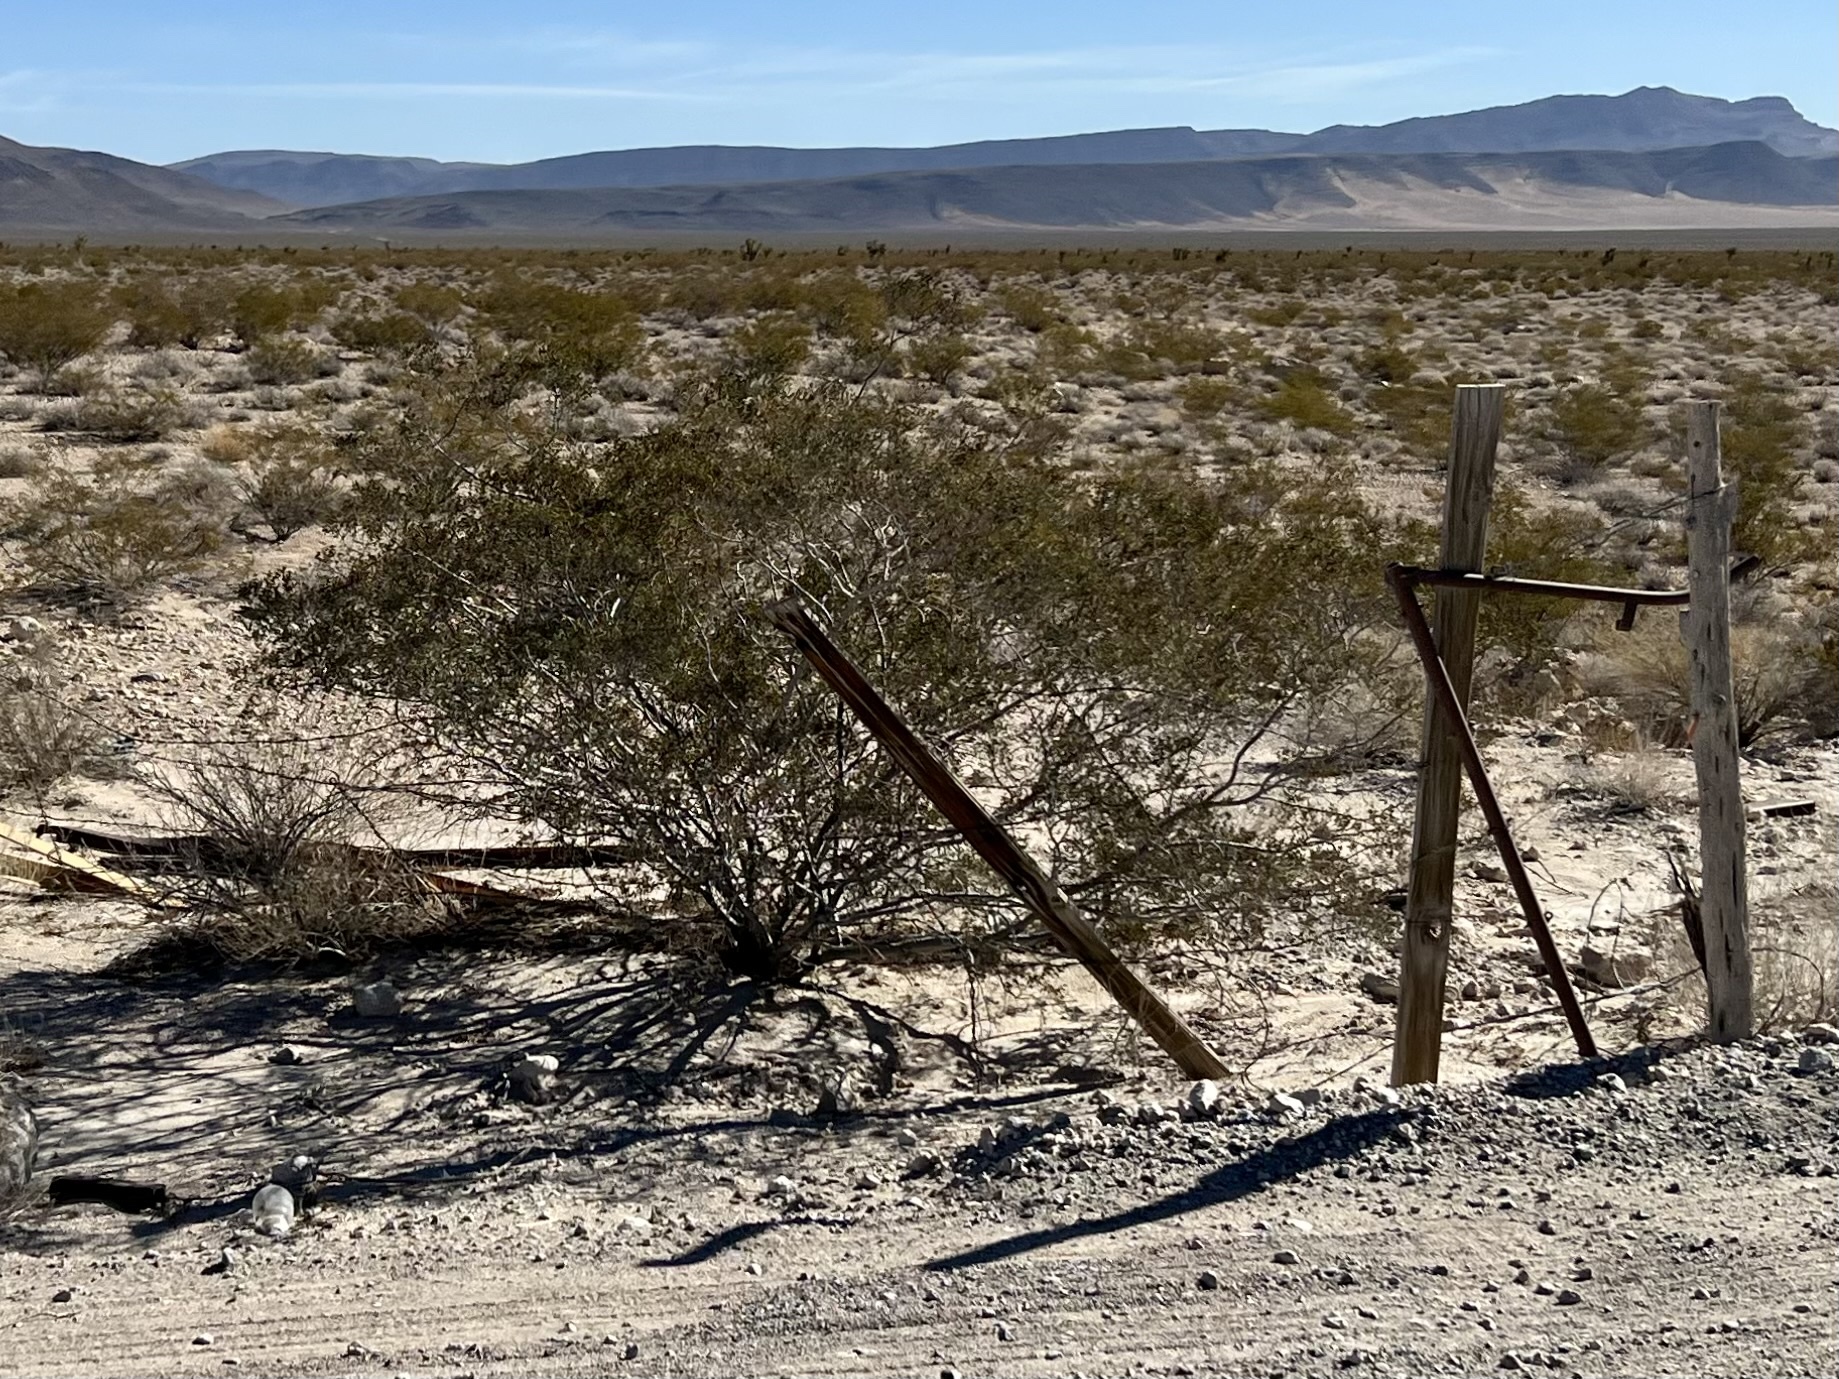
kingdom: Plantae
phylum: Tracheophyta
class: Magnoliopsida
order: Zygophyllales
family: Zygophyllaceae
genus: Larrea
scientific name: Larrea tridentata
